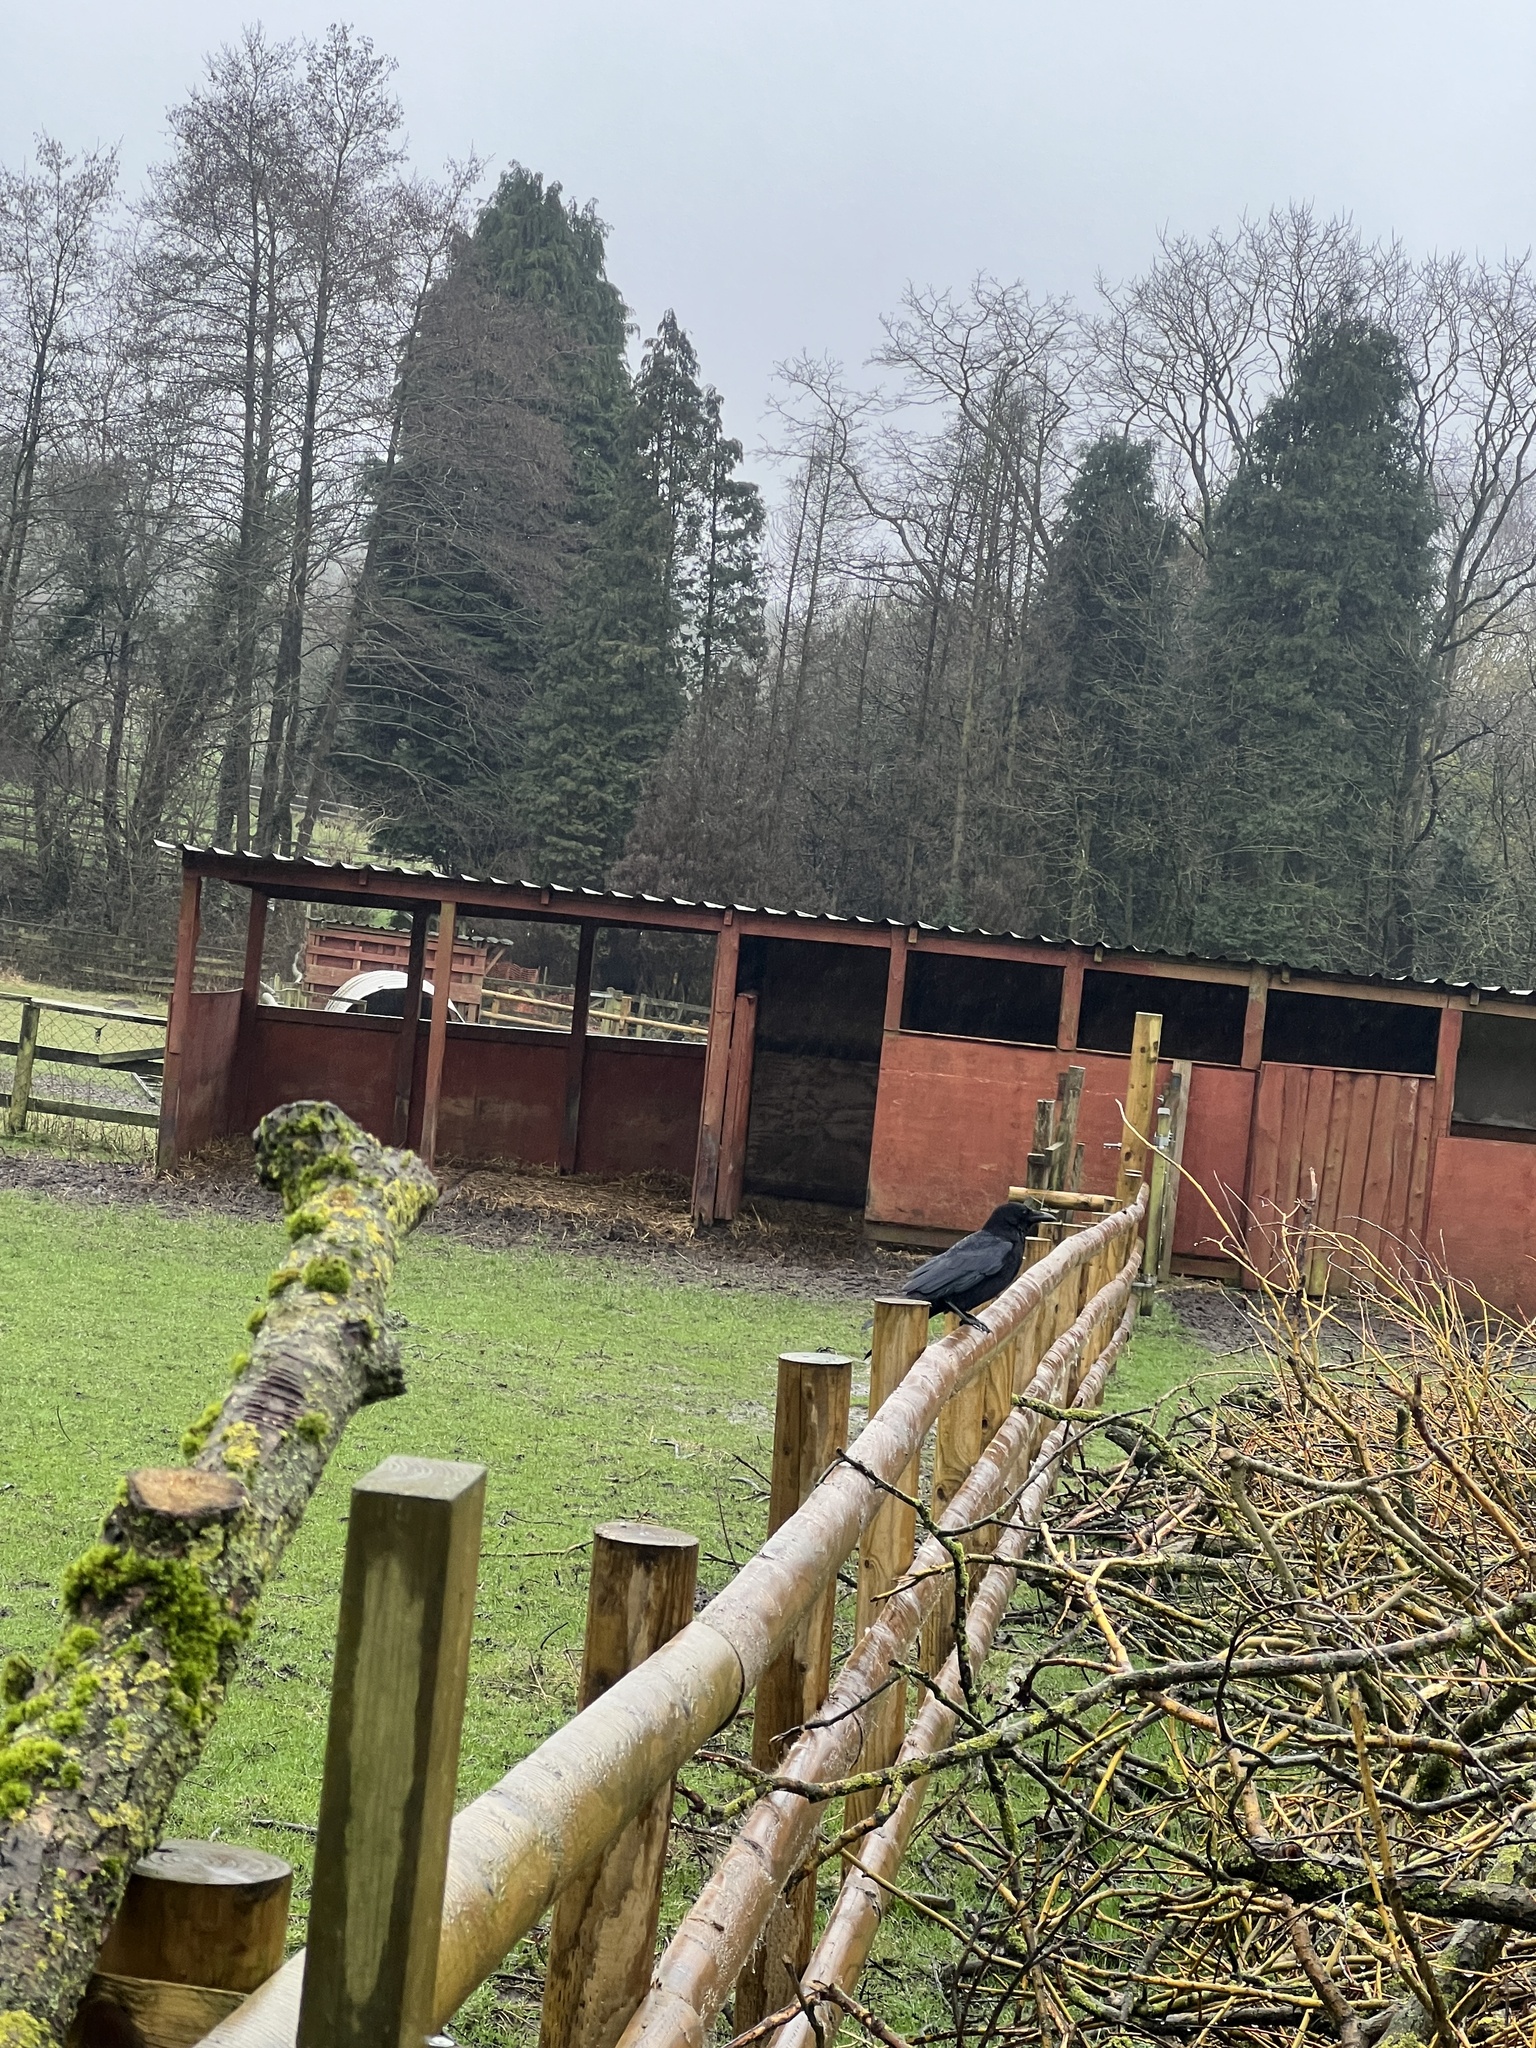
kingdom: Animalia
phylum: Chordata
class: Aves
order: Passeriformes
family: Corvidae
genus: Corvus
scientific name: Corvus corone
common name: Carrion crow
